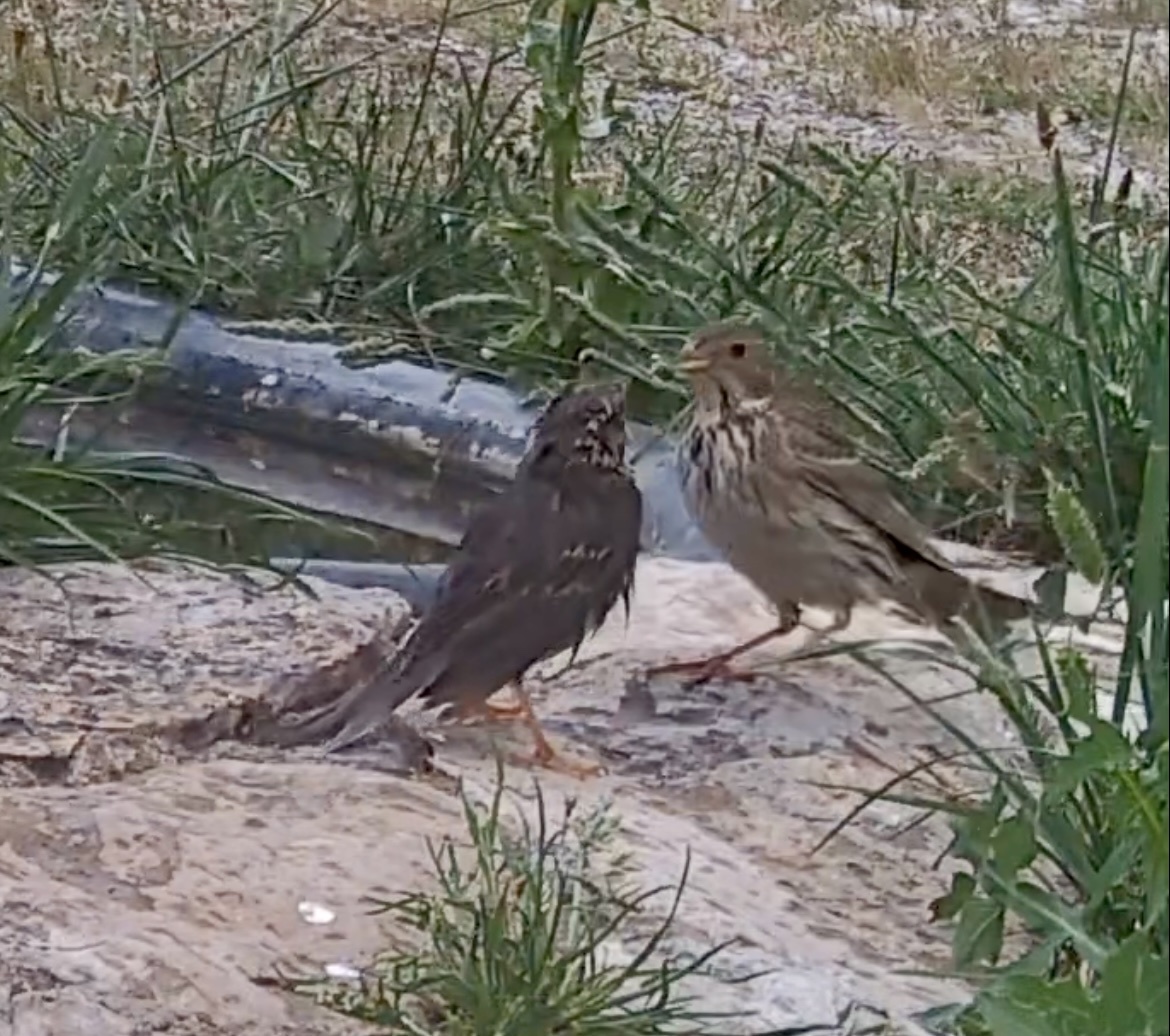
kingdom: Animalia
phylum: Chordata
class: Aves
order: Passeriformes
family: Emberizidae
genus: Emberiza
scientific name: Emberiza calandra
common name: Corn bunting
